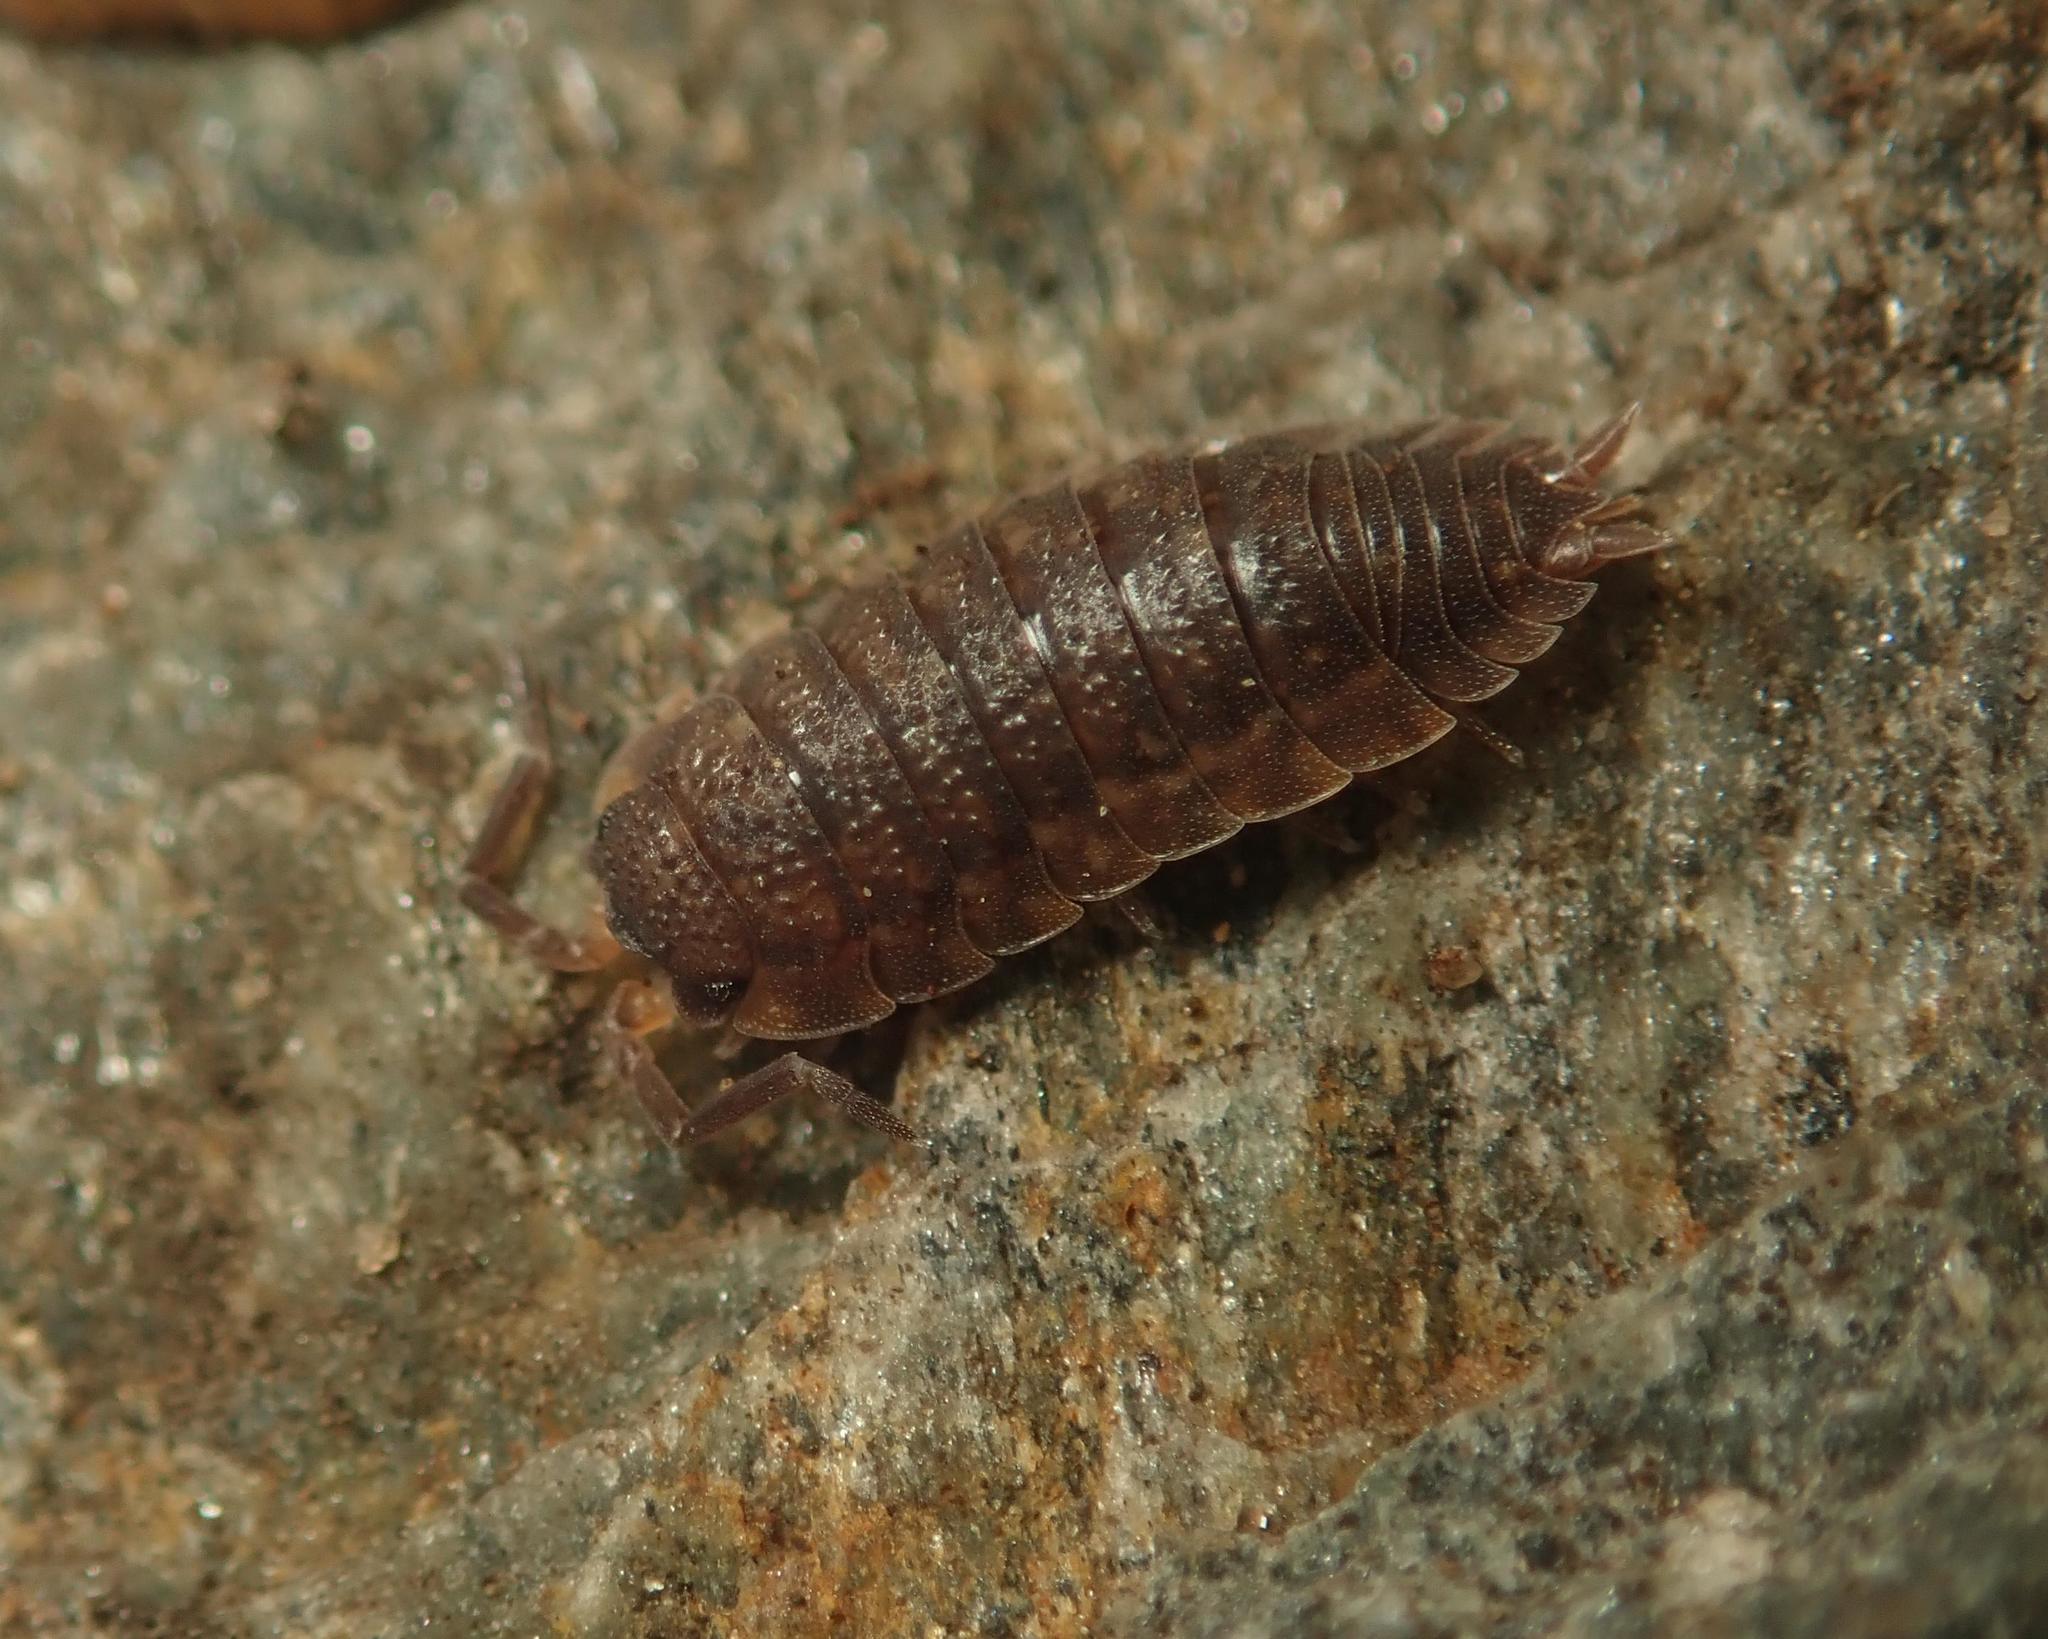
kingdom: Animalia
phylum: Arthropoda
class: Malacostraca
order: Isopoda
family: Porcellionidae
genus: Porcellio
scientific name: Porcellio scaber
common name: Common rough woodlouse
